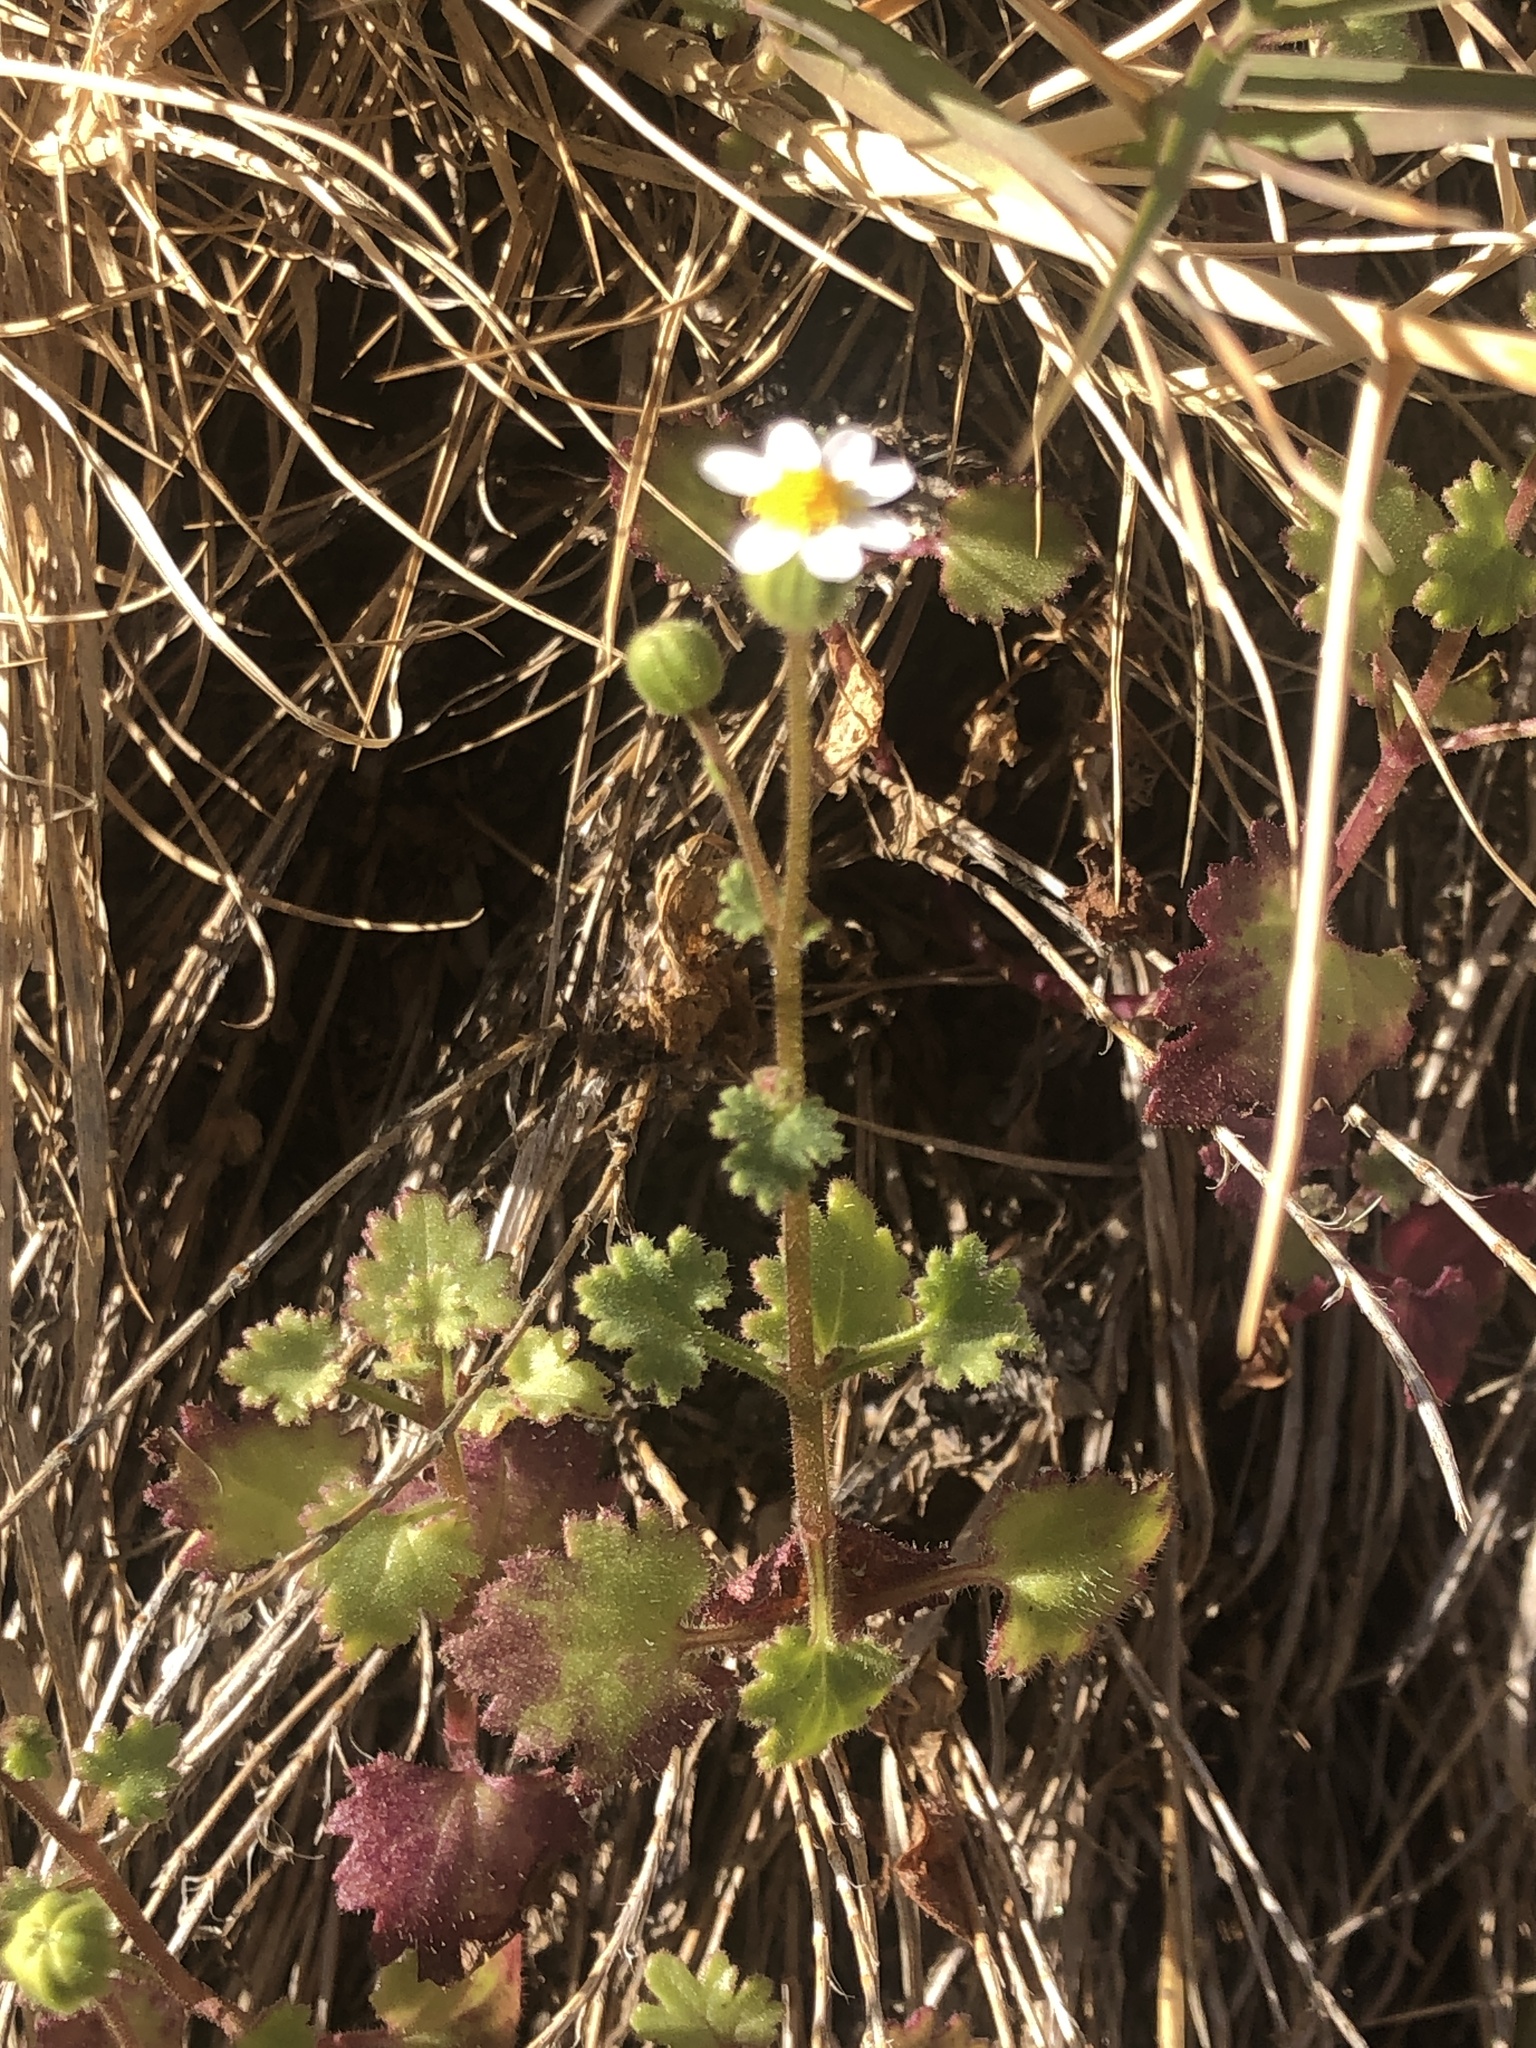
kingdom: Plantae
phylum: Tracheophyta
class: Magnoliopsida
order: Asterales
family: Asteraceae
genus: Laphamia
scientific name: Laphamia emoryi
